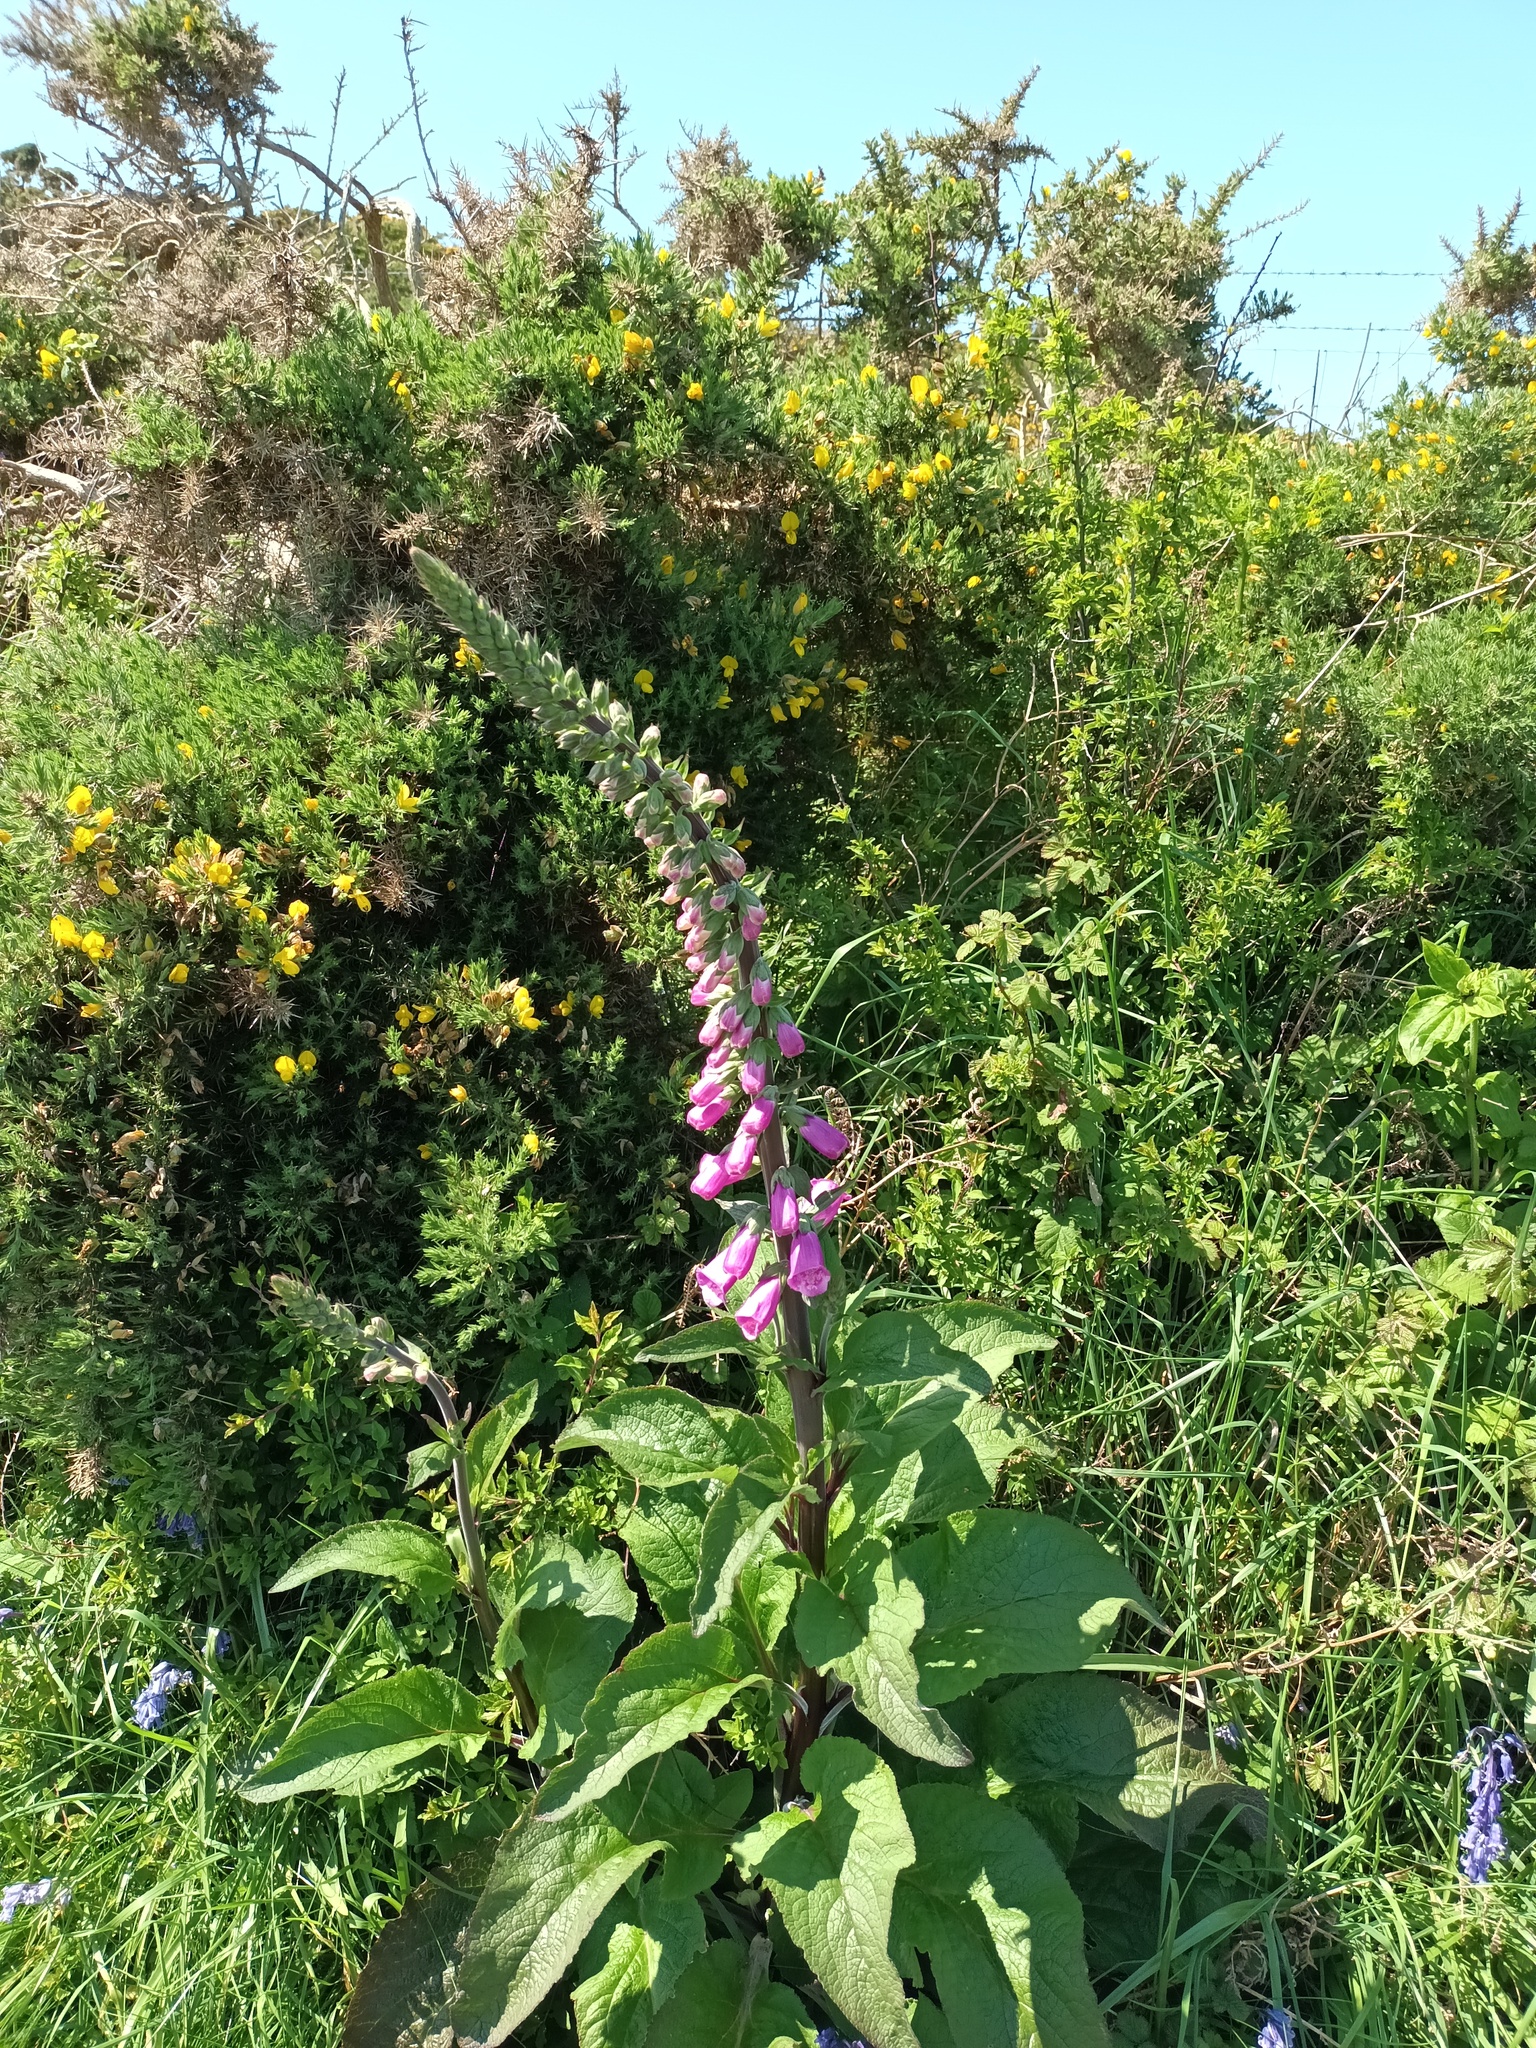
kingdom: Plantae
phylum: Tracheophyta
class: Magnoliopsida
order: Lamiales
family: Plantaginaceae
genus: Digitalis
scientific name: Digitalis purpurea
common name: Foxglove
